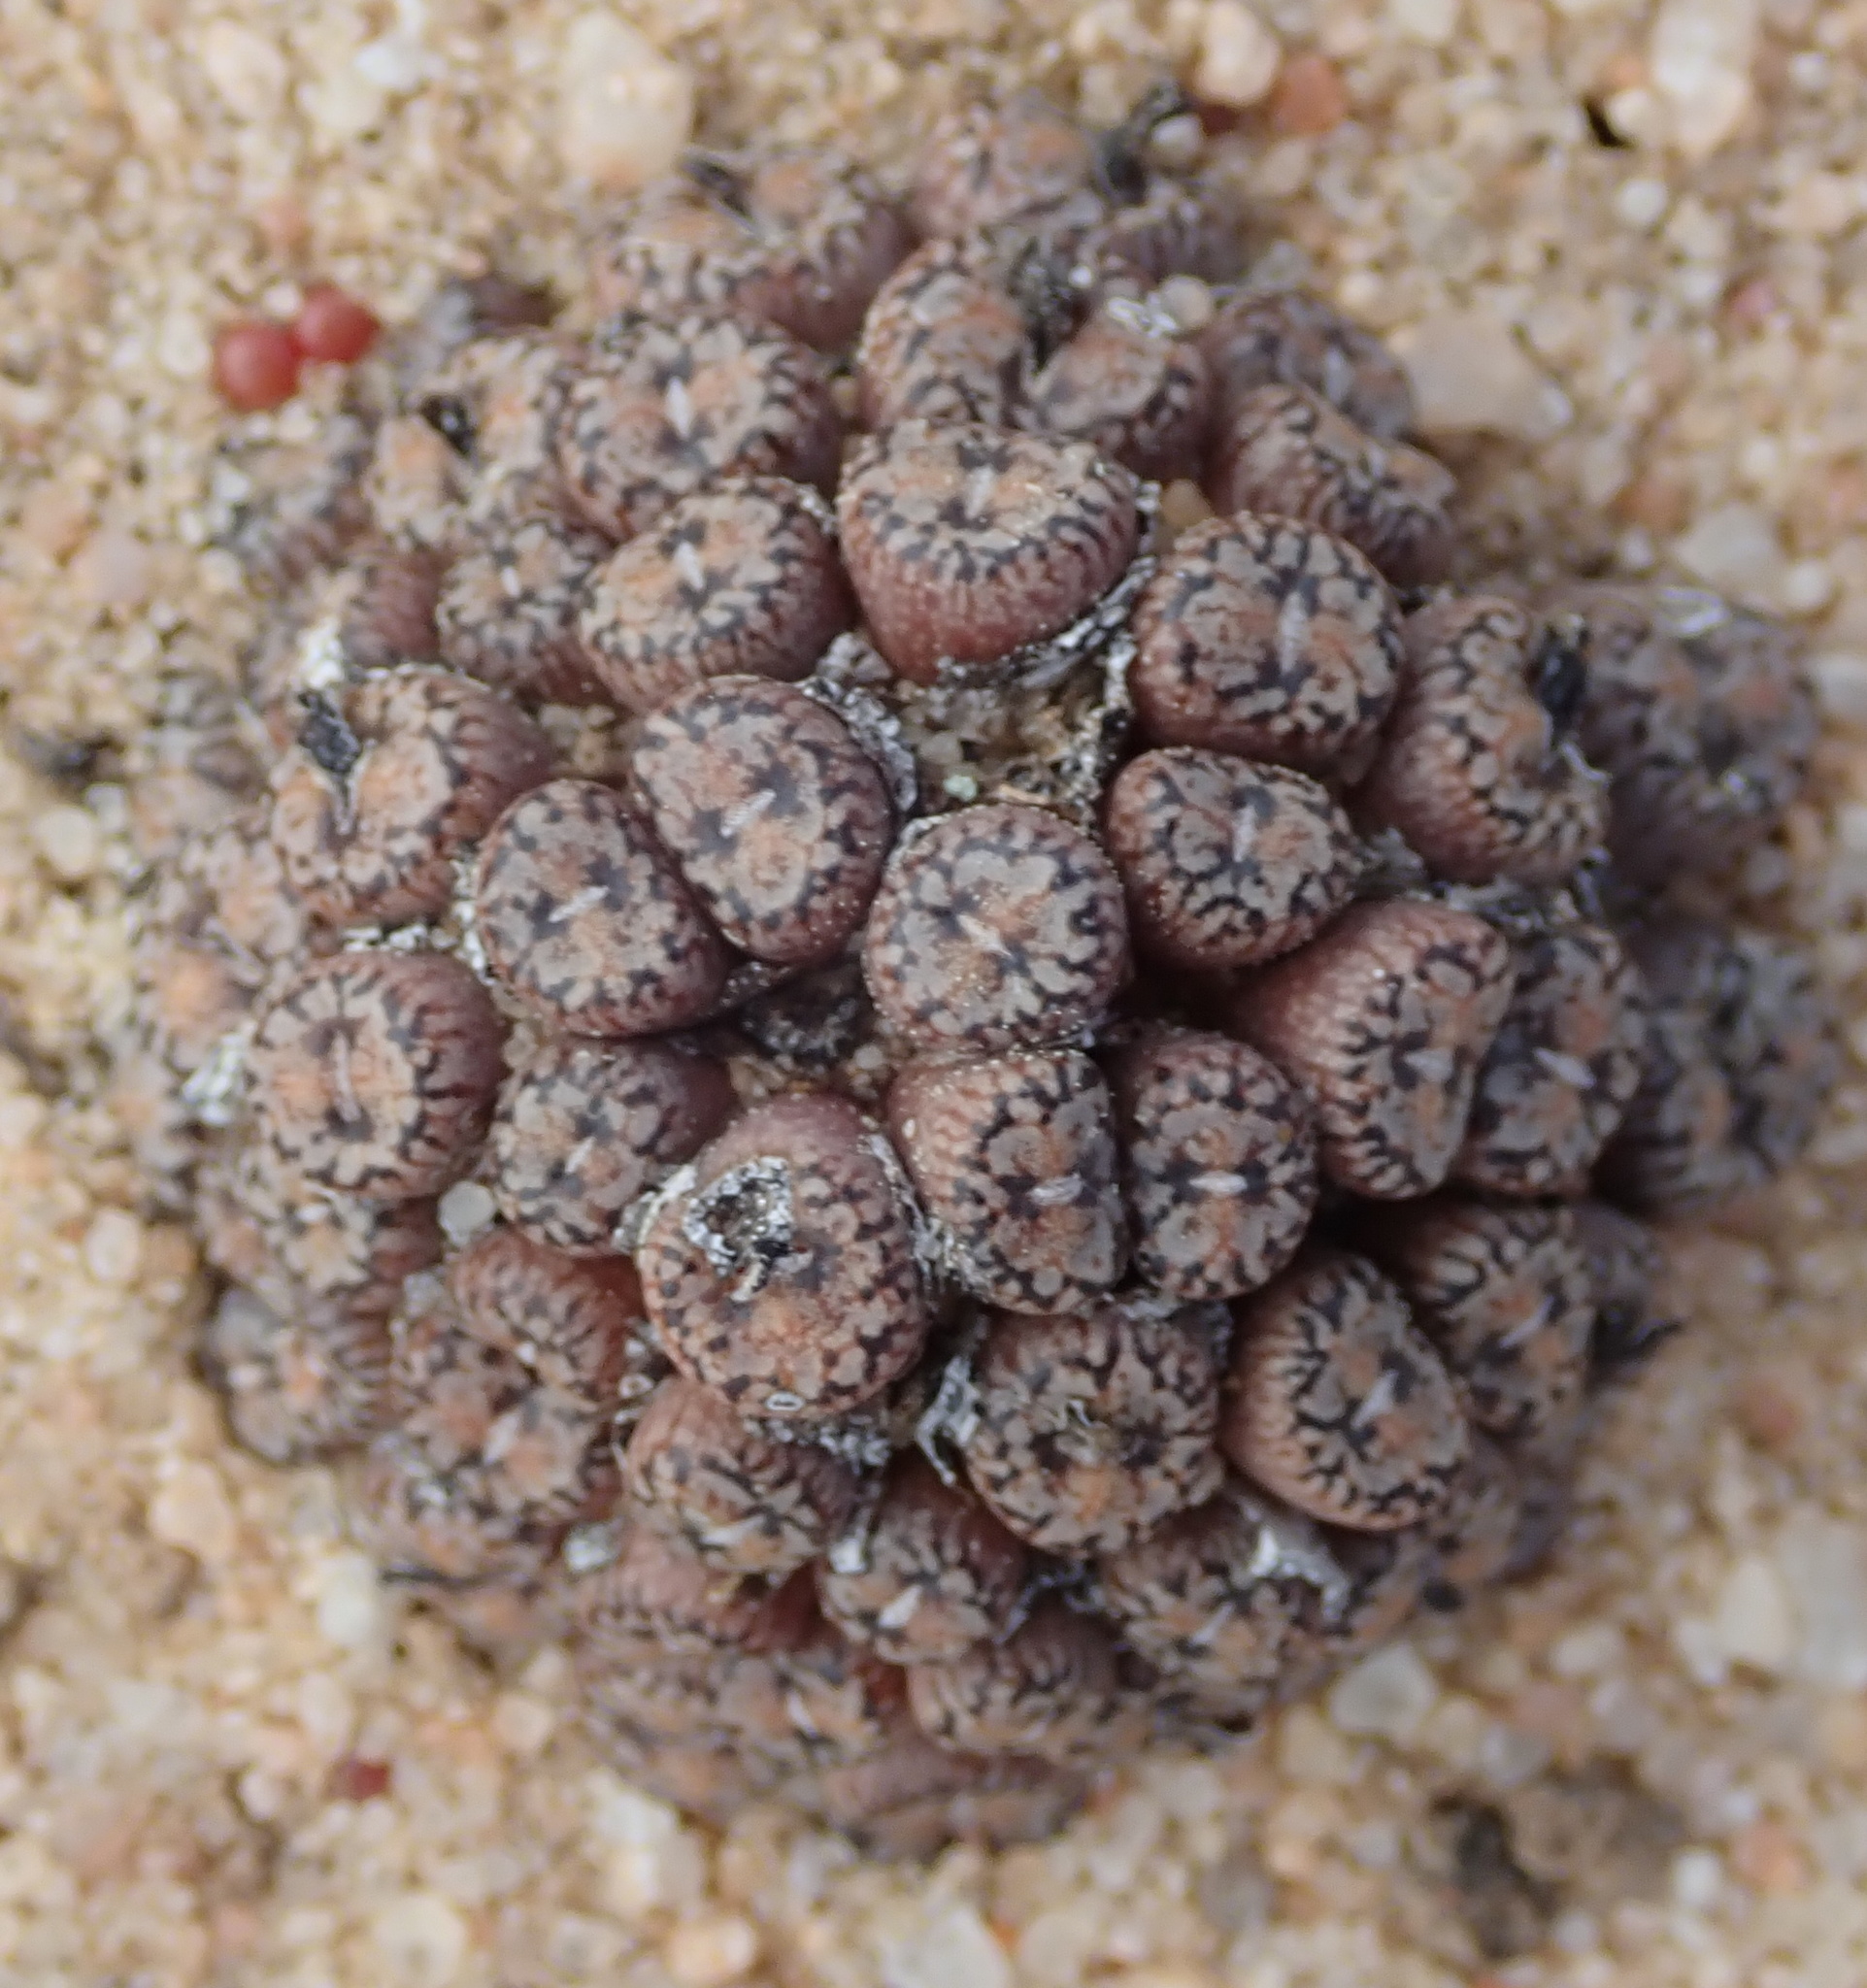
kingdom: Plantae
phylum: Tracheophyta
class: Magnoliopsida
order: Caryophyllales
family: Aizoaceae
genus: Conophytum
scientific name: Conophytum comptonii
